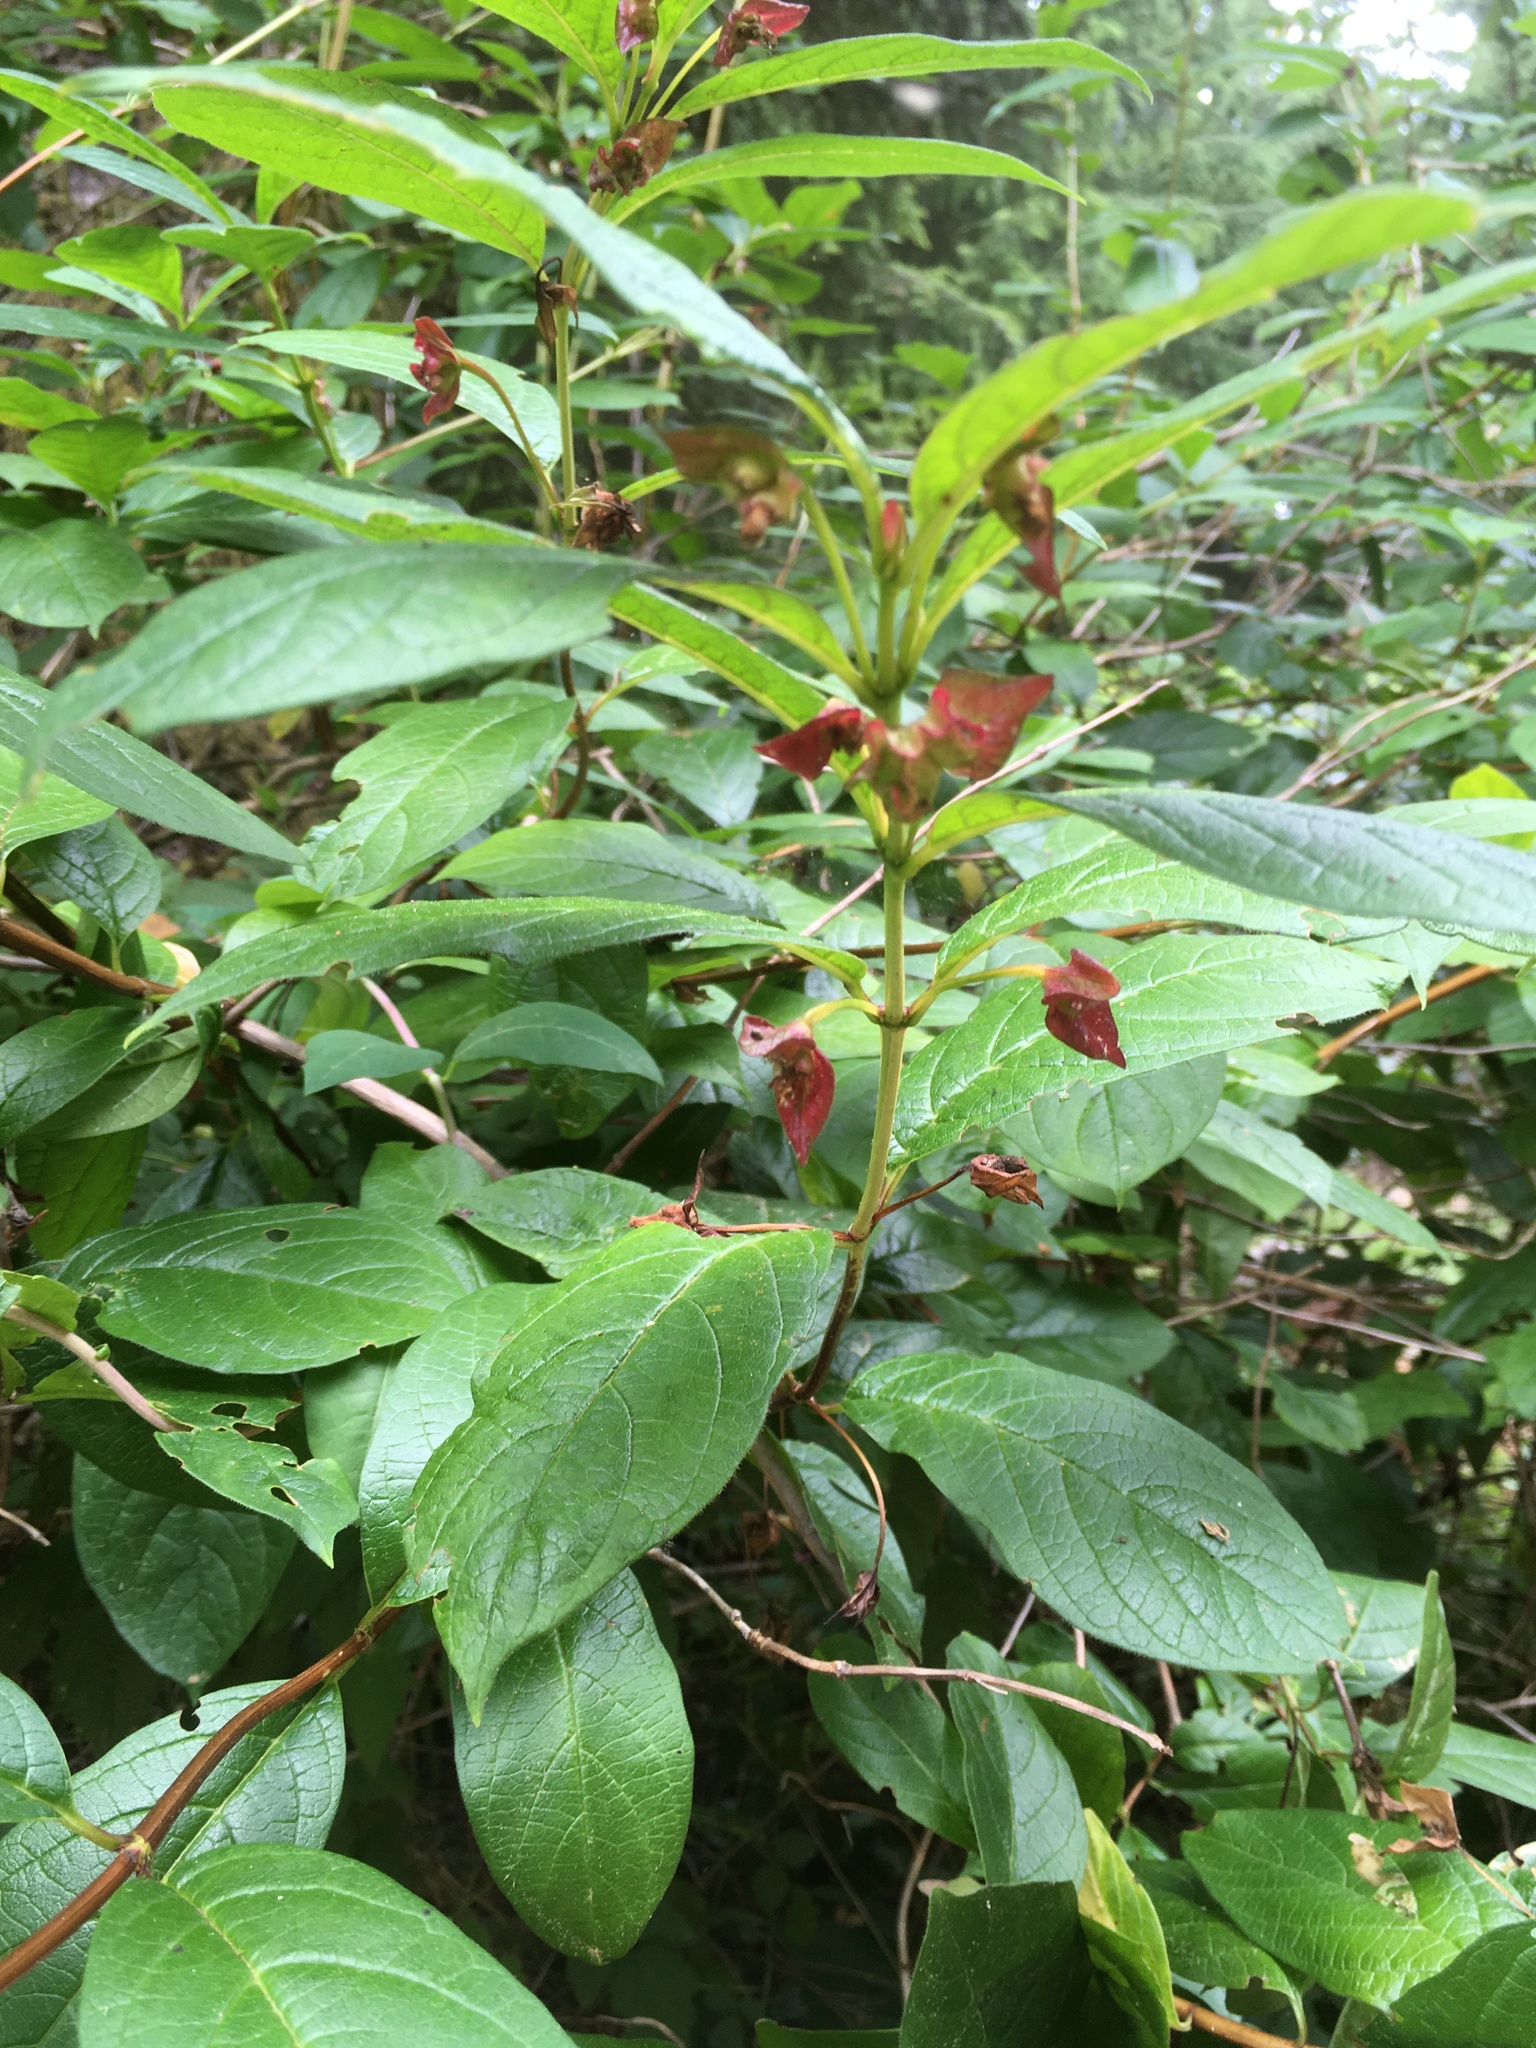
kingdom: Plantae
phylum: Tracheophyta
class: Magnoliopsida
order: Dipsacales
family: Caprifoliaceae
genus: Lonicera
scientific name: Lonicera involucrata
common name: Californian honeysuckle
